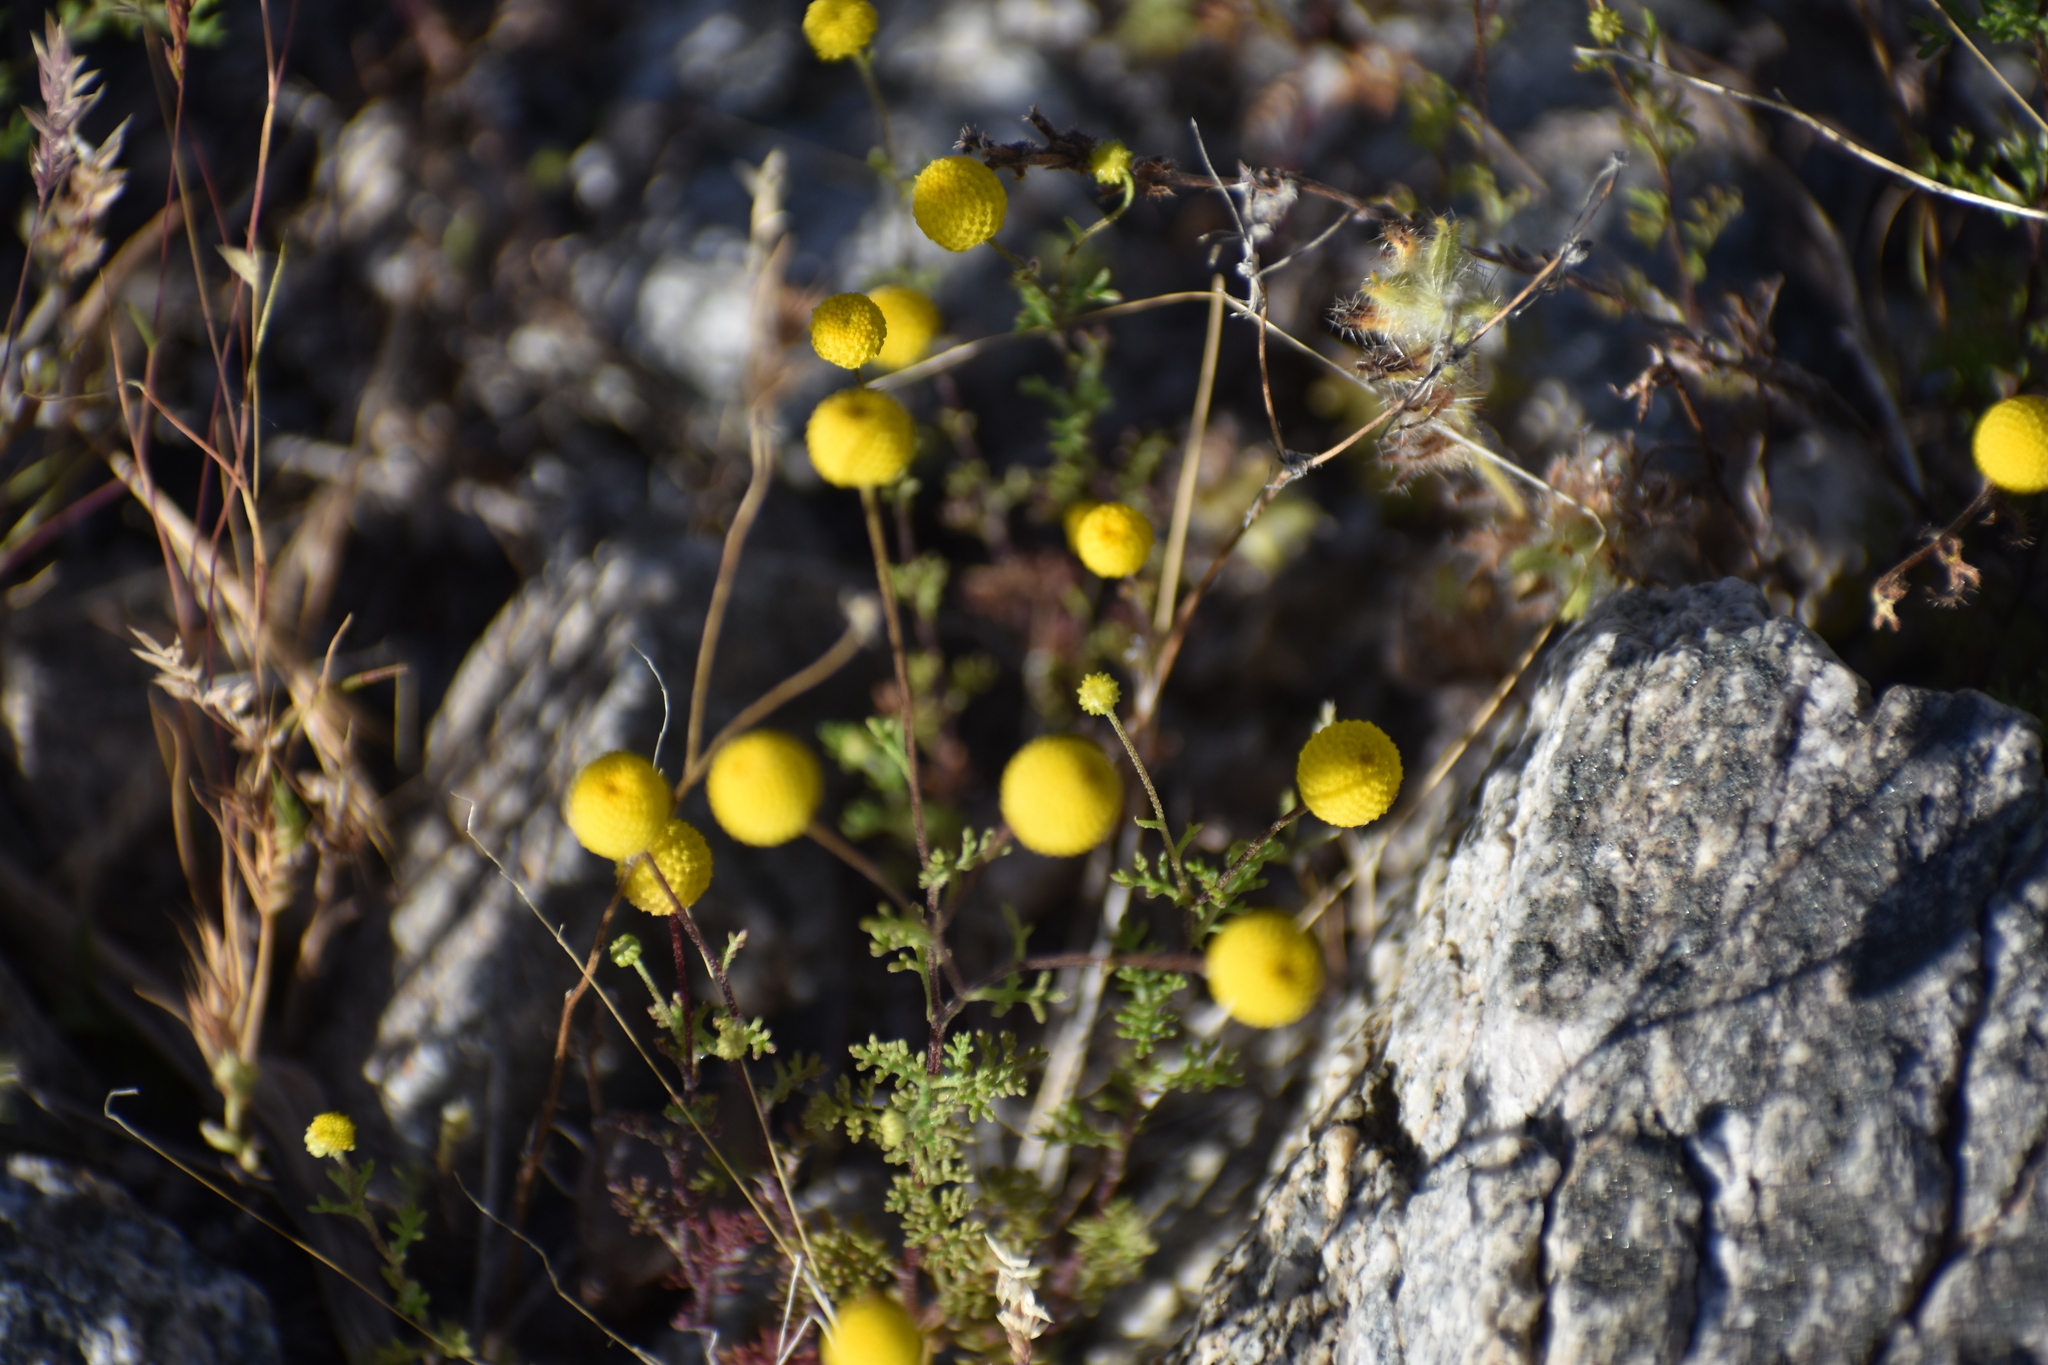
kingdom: Plantae
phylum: Tracheophyta
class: Magnoliopsida
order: Asterales
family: Asteraceae
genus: Oncosiphon
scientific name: Oncosiphon pilulifer
